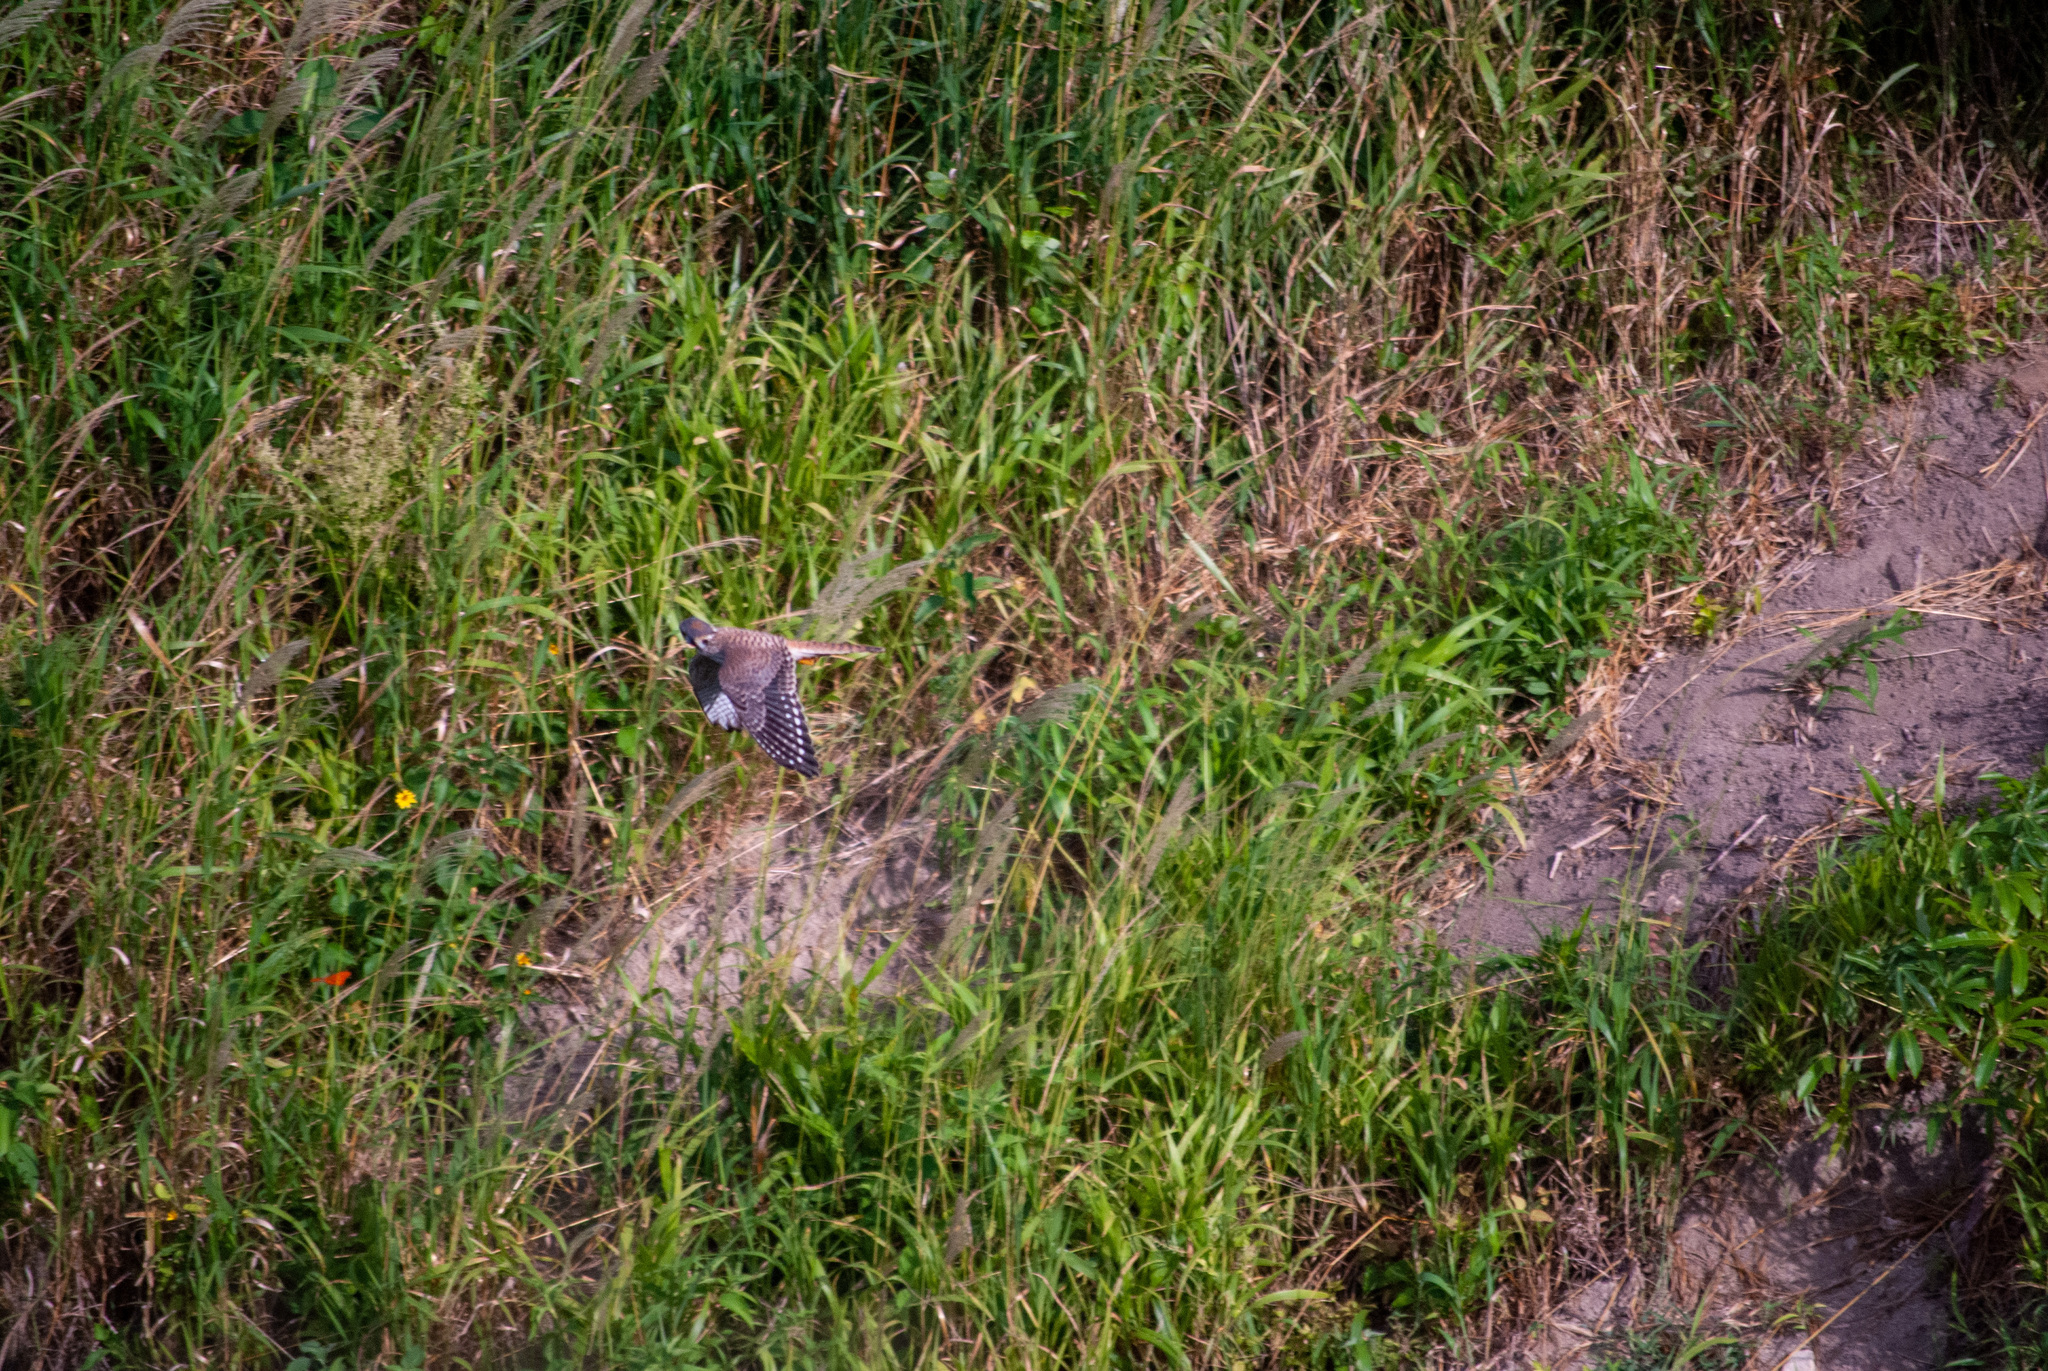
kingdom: Animalia
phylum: Chordata
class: Aves
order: Falconiformes
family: Falconidae
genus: Falco
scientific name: Falco sparverius
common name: American kestrel
